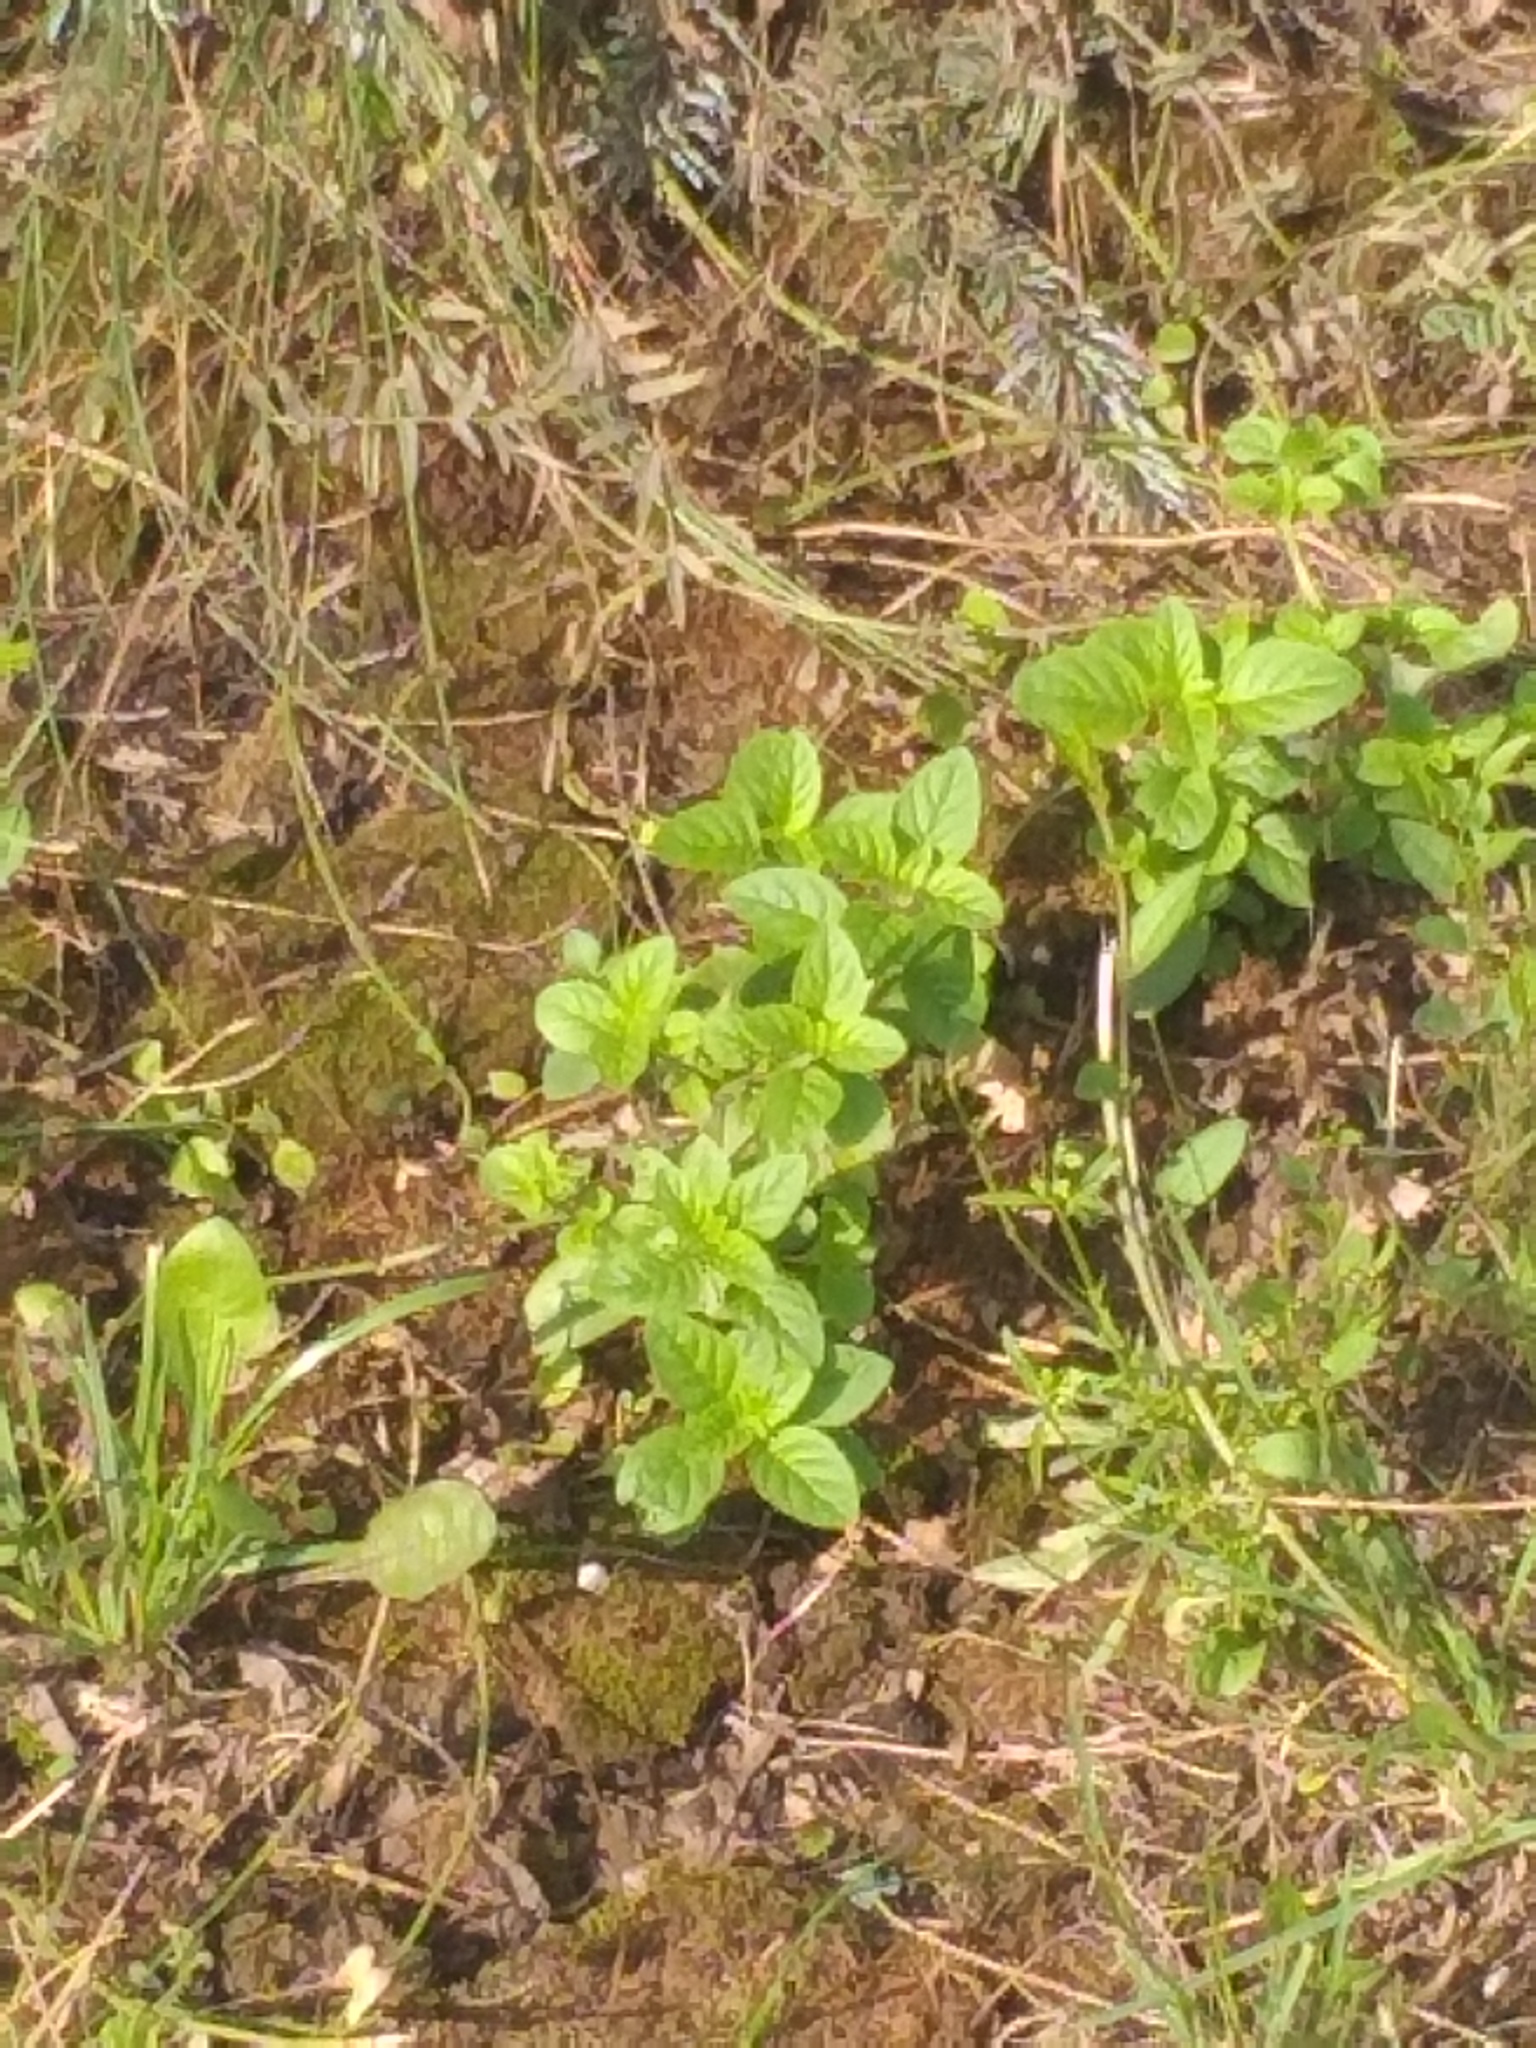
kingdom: Plantae
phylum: Tracheophyta
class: Magnoliopsida
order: Lamiales
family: Lamiaceae
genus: Mentha
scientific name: Mentha arvensis
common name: Corn mint
